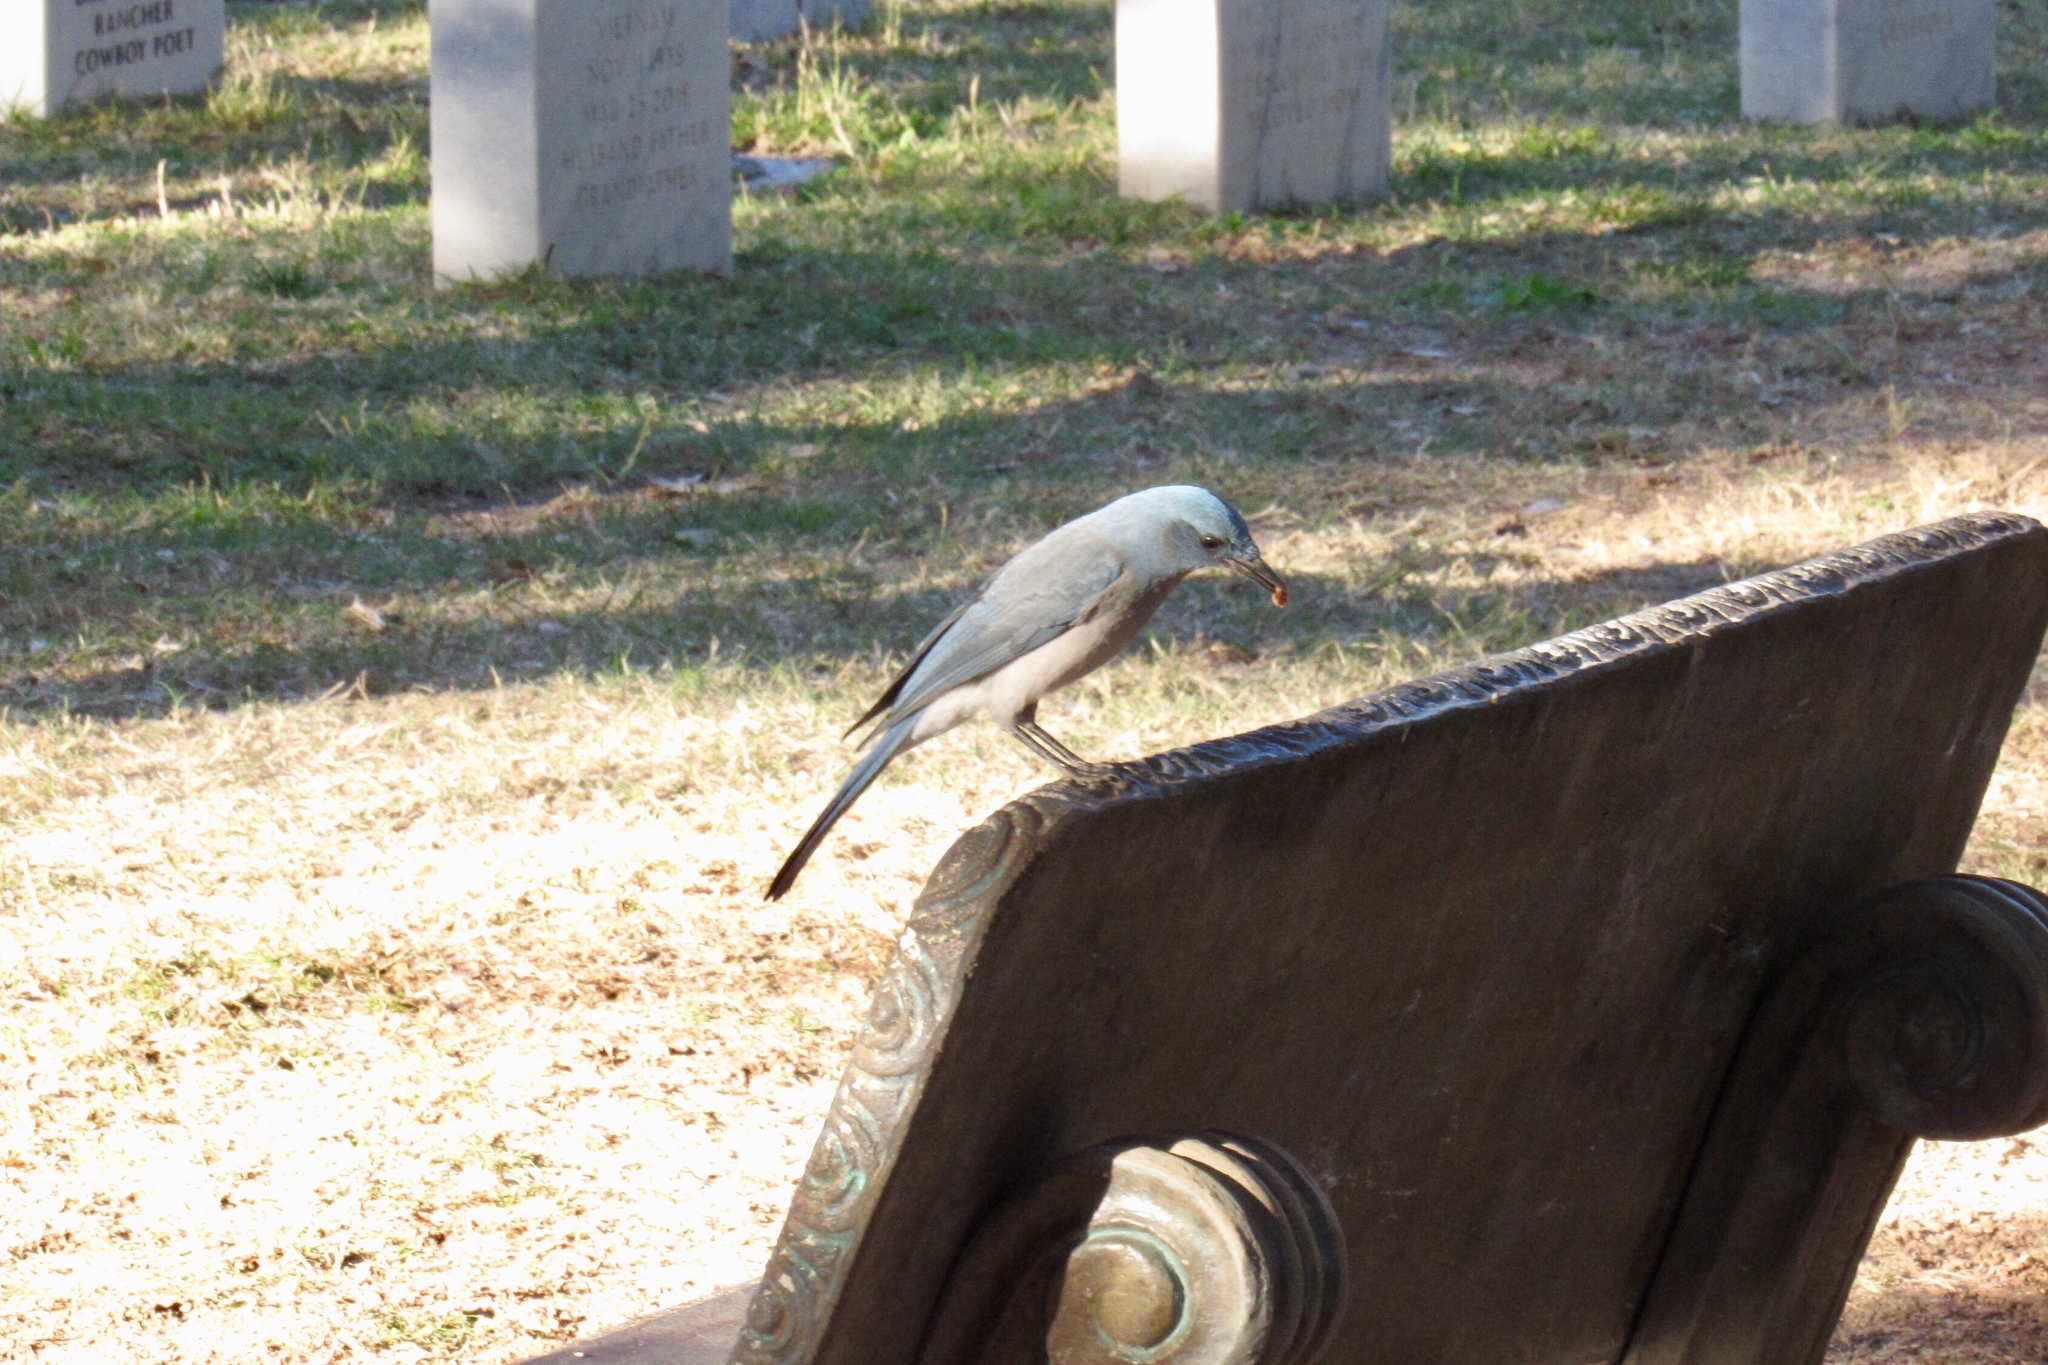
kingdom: Animalia
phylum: Chordata
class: Aves
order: Passeriformes
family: Corvidae
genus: Aphelocoma
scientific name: Aphelocoma wollweberi
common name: Mexican jay
